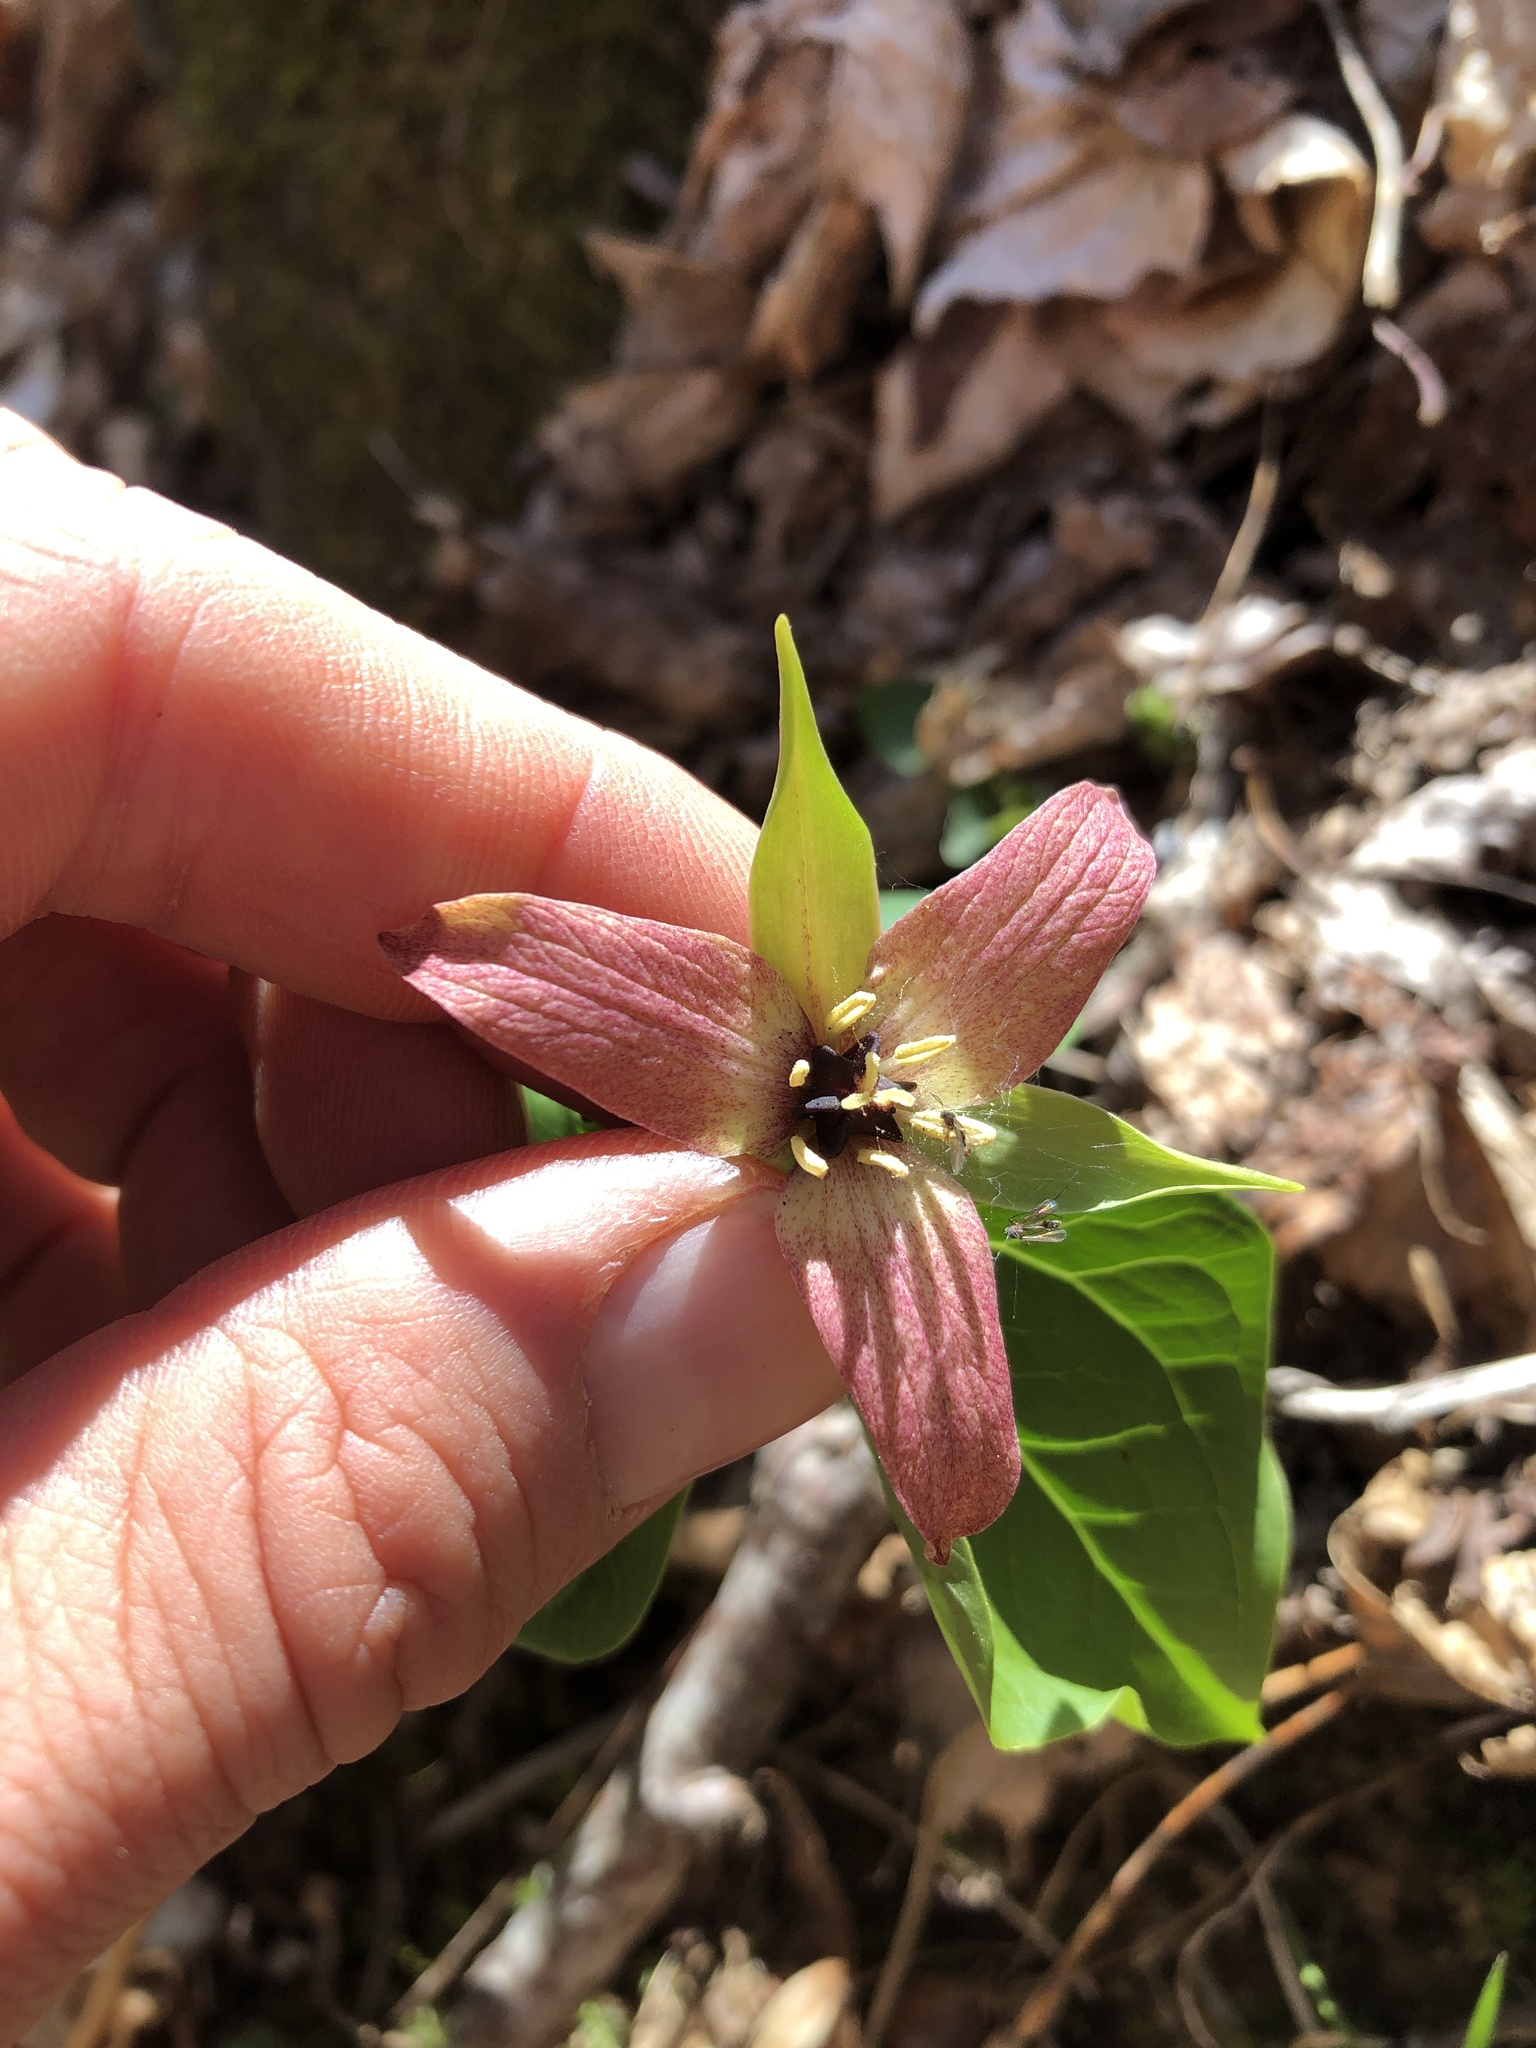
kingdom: Plantae
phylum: Tracheophyta
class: Liliopsida
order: Liliales
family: Melanthiaceae
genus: Trillium
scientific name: Trillium erectum
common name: Purple trillium
